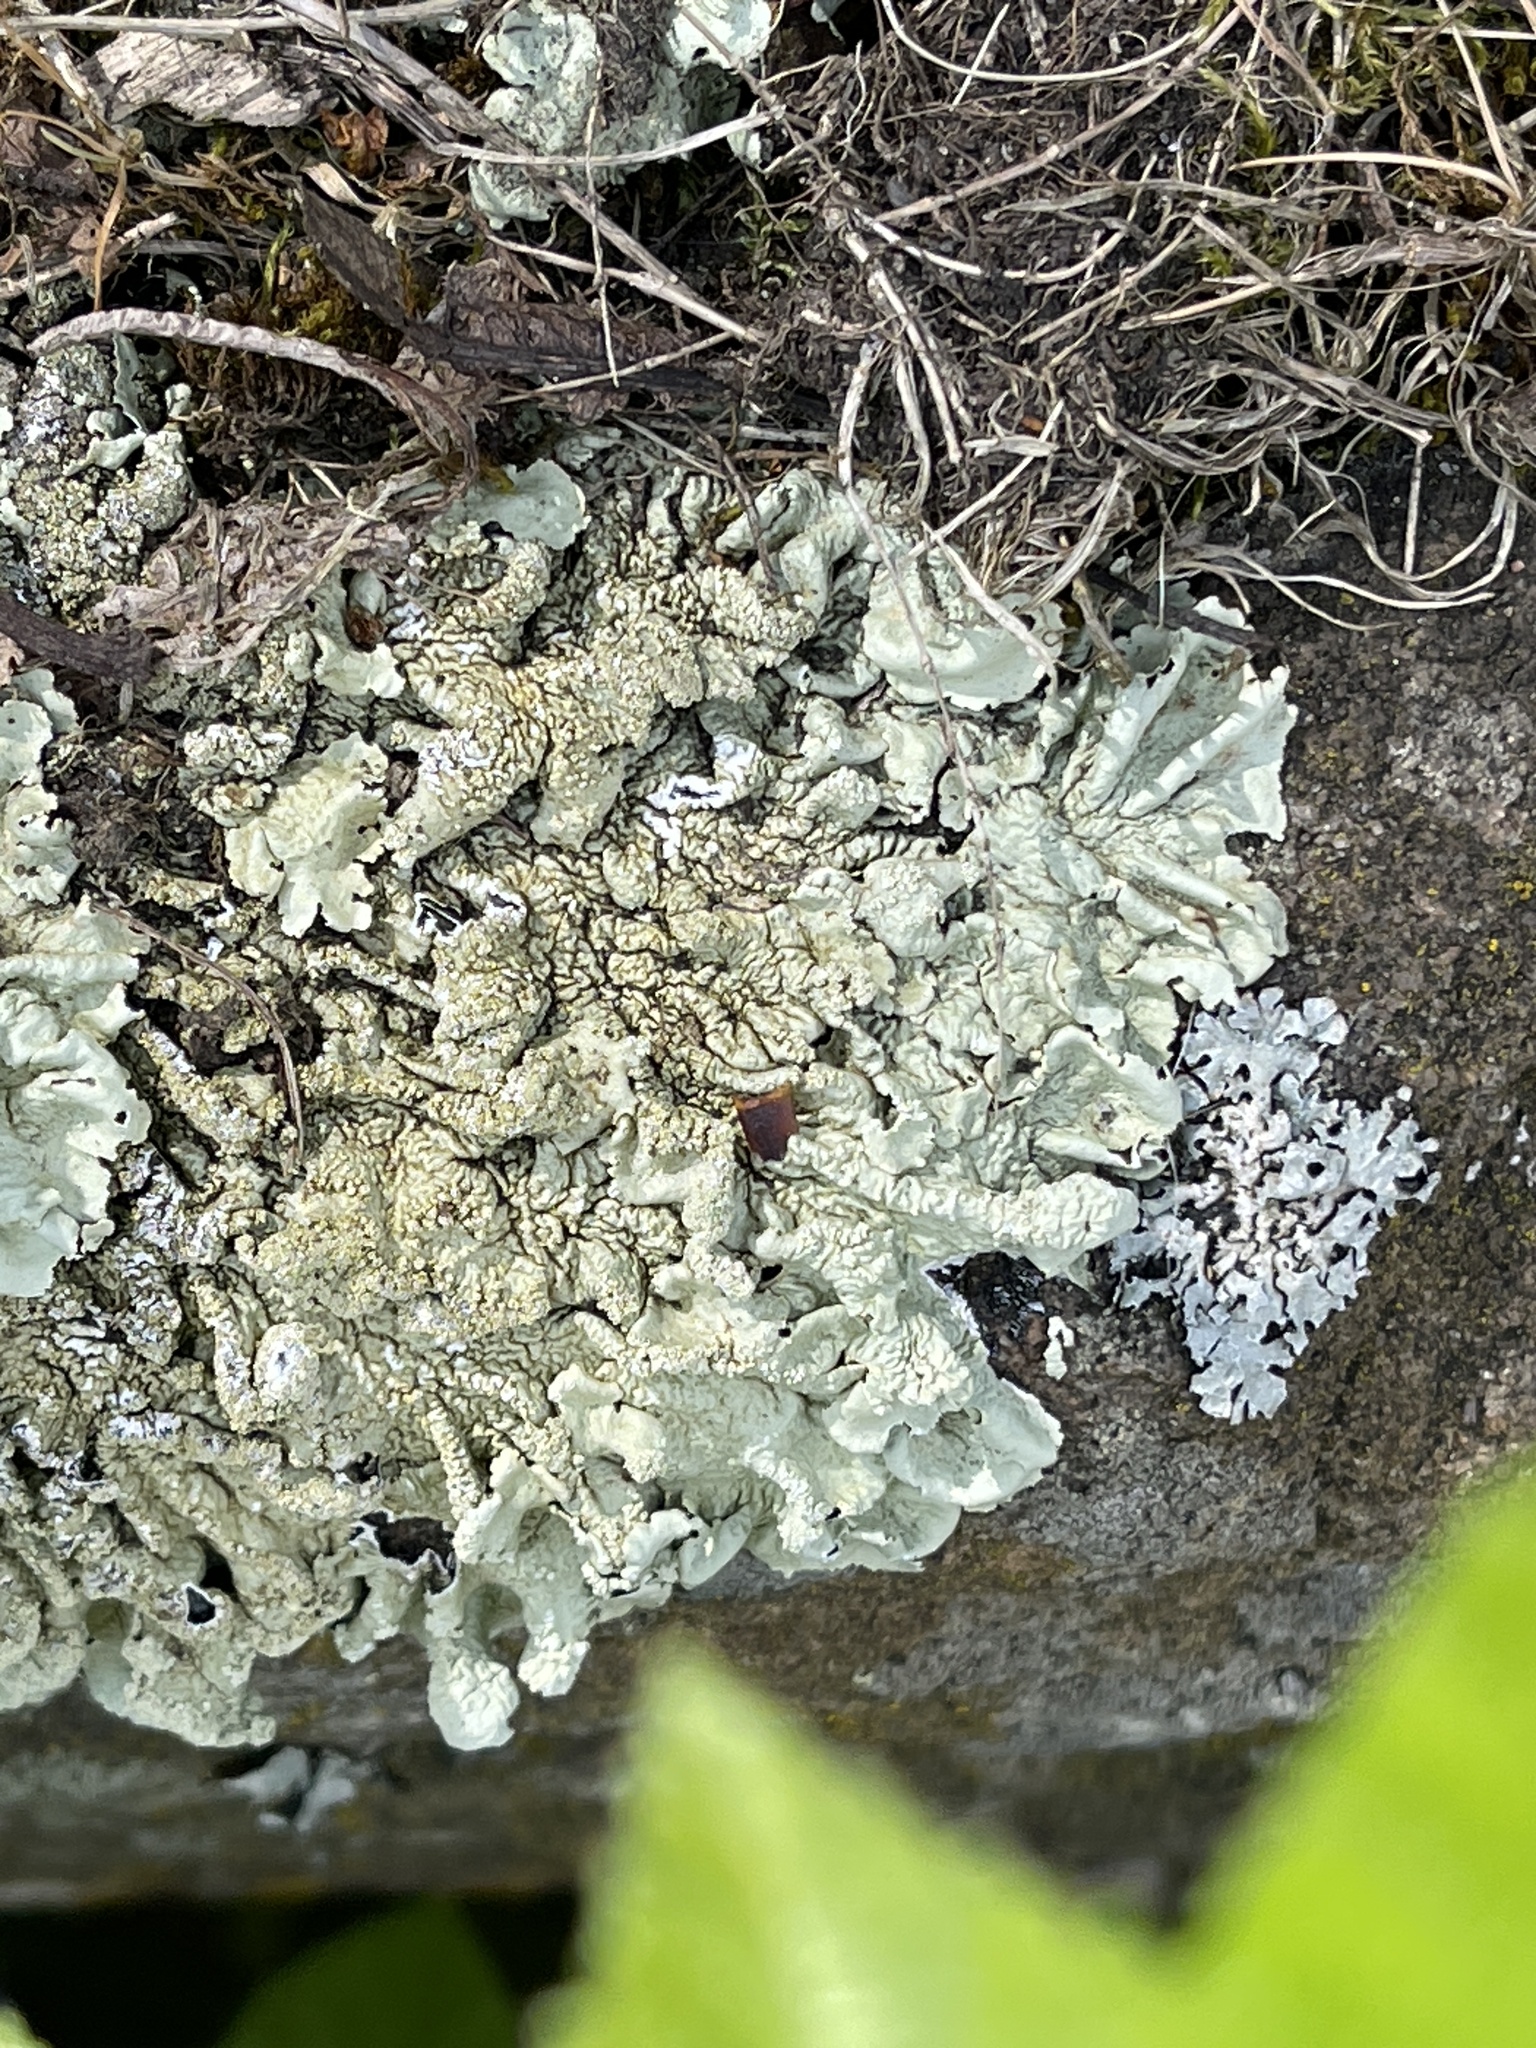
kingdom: Fungi
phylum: Ascomycota
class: Lecanoromycetes
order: Lecanorales
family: Parmeliaceae
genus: Flavoparmelia
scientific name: Flavoparmelia caperata
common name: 40-mile per hour lichen
